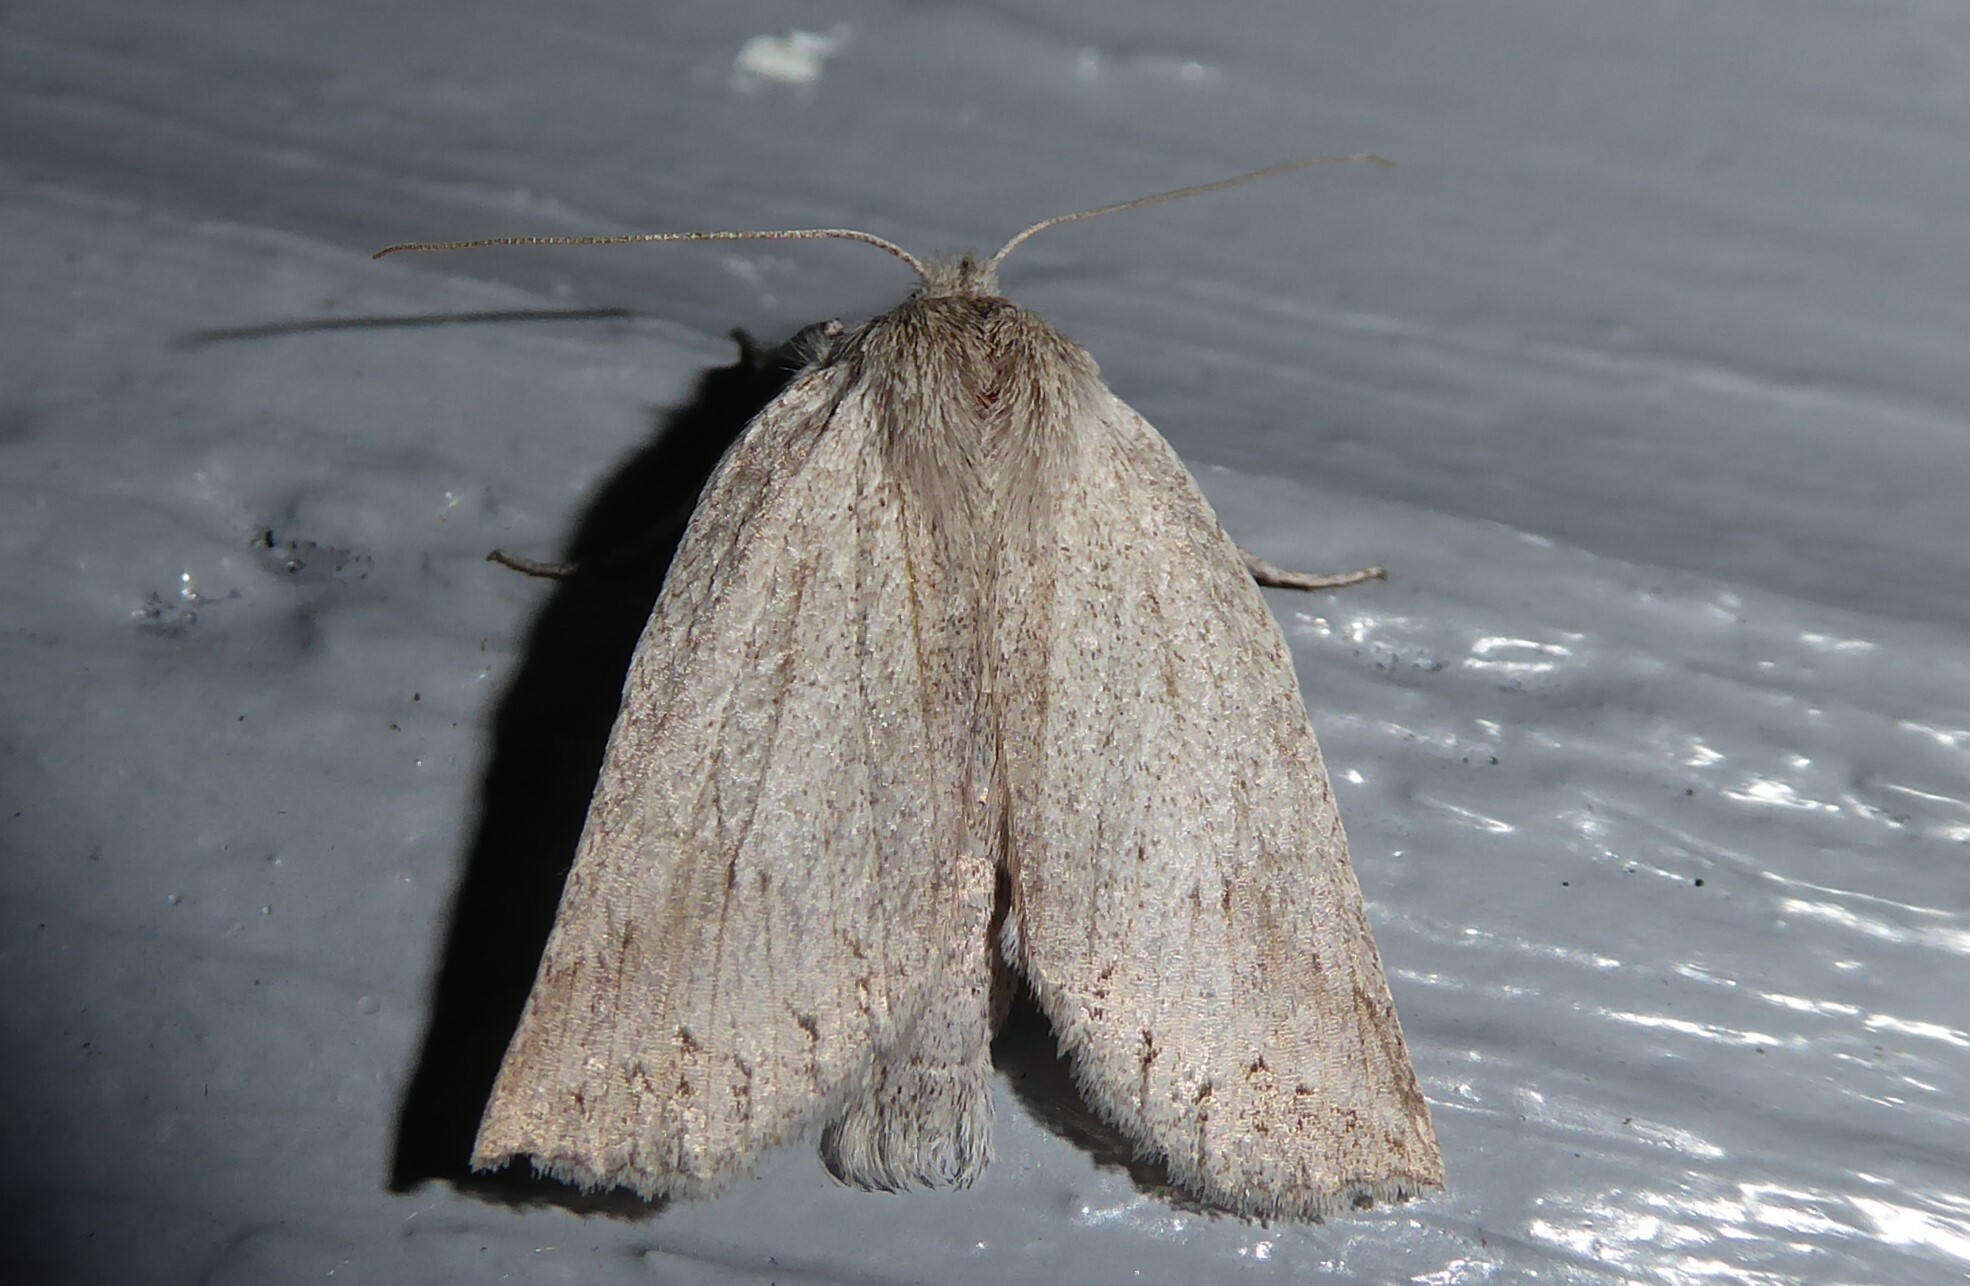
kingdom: Animalia
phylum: Arthropoda
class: Insecta
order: Lepidoptera
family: Geometridae
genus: Declana
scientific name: Declana leptomera
